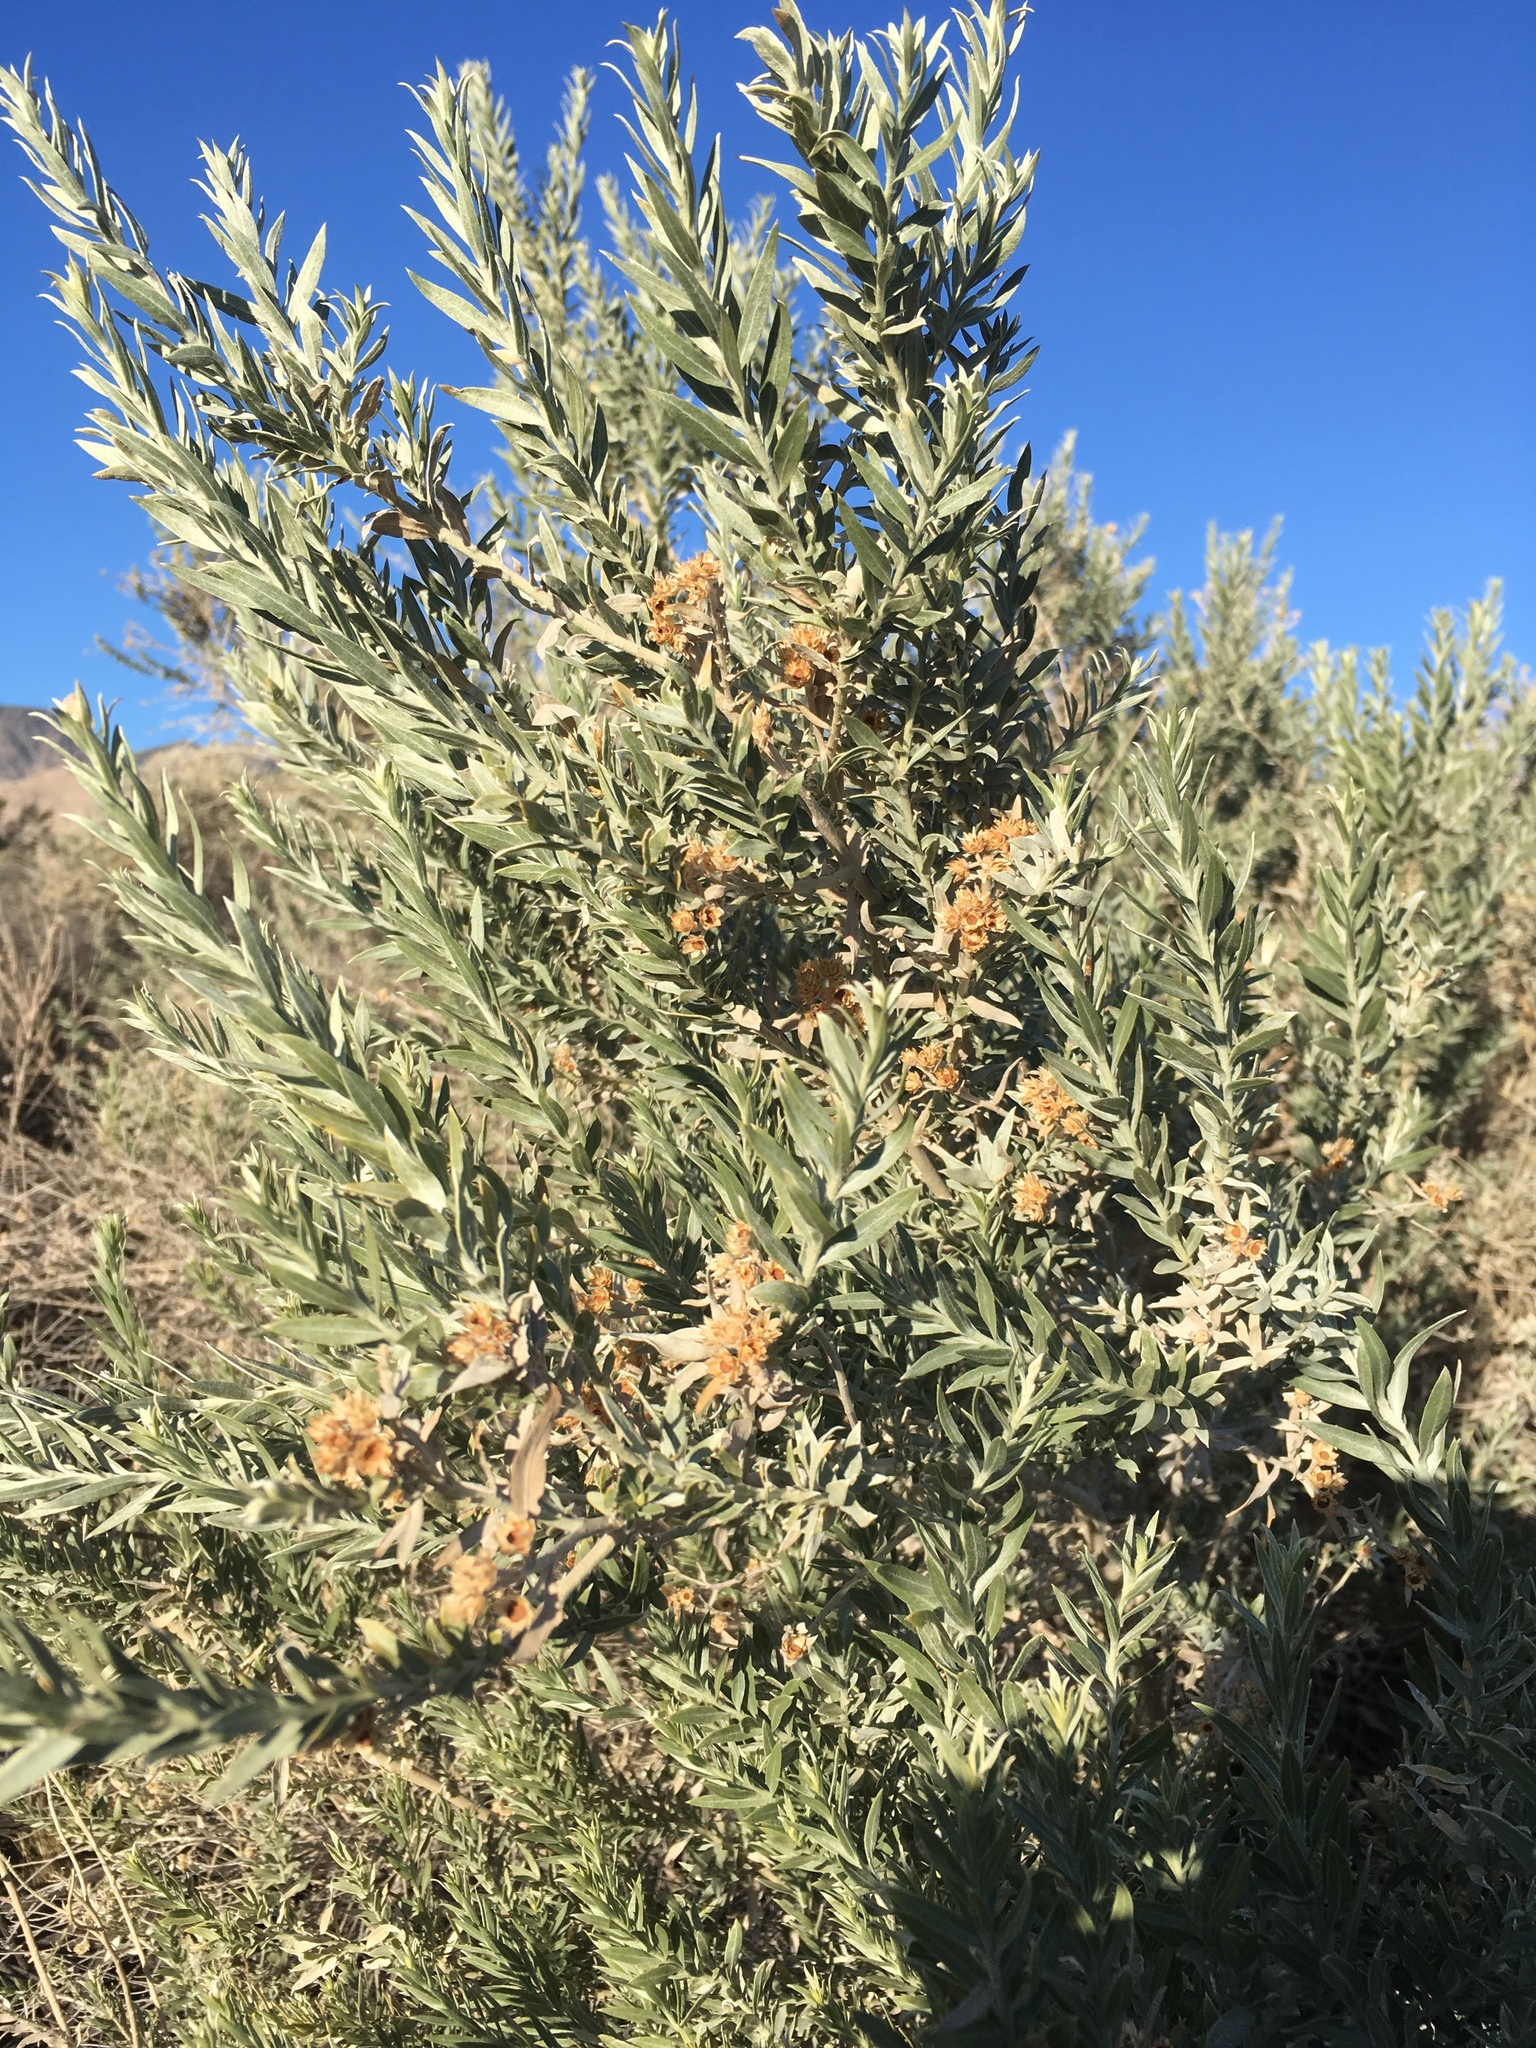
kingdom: Plantae
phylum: Tracheophyta
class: Magnoliopsida
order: Asterales
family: Asteraceae
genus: Pluchea
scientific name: Pluchea sericea
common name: Arrow-weed
